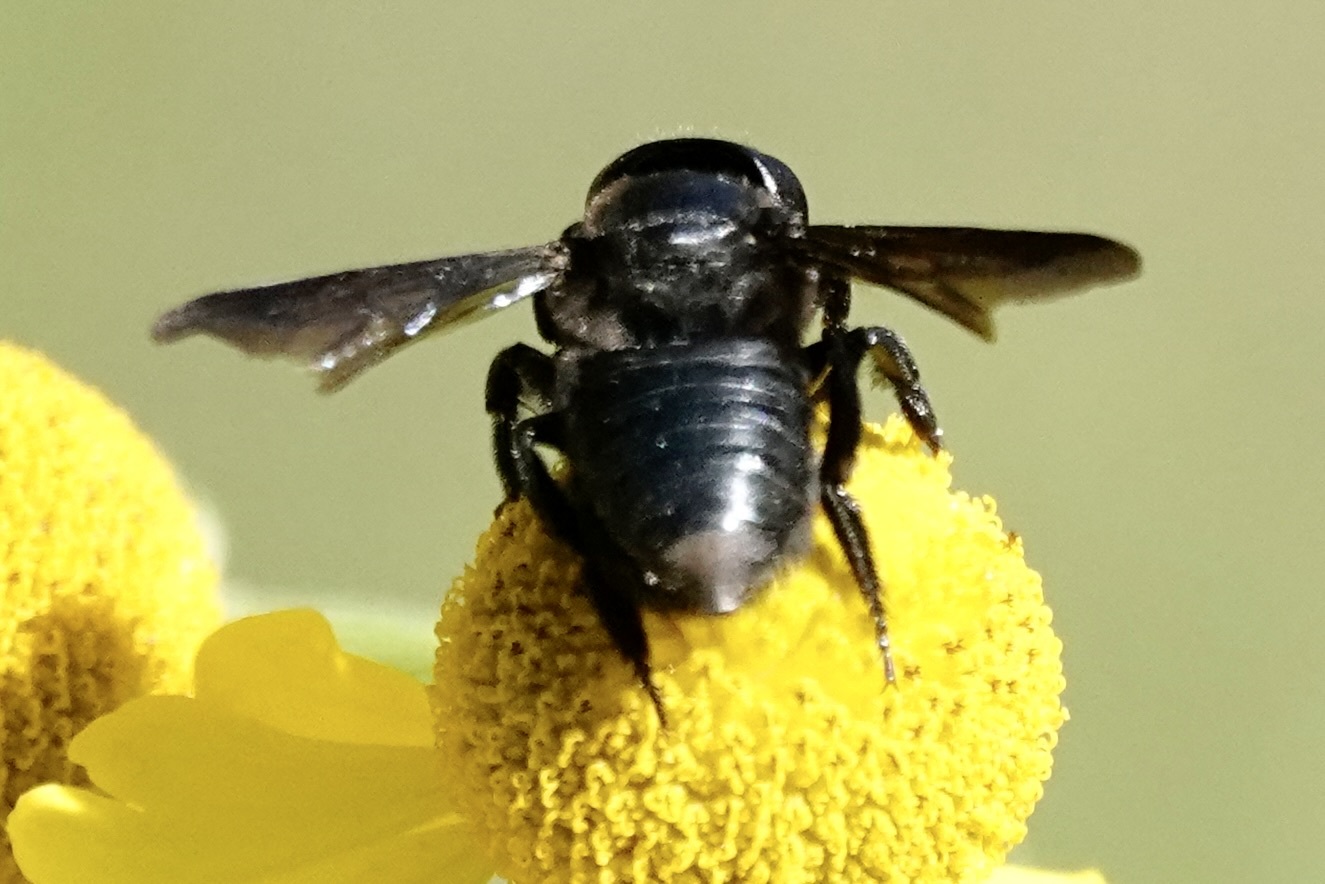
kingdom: Animalia
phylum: Arthropoda
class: Insecta
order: Hymenoptera
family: Megachilidae
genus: Megachile
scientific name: Megachile xylocopoides
